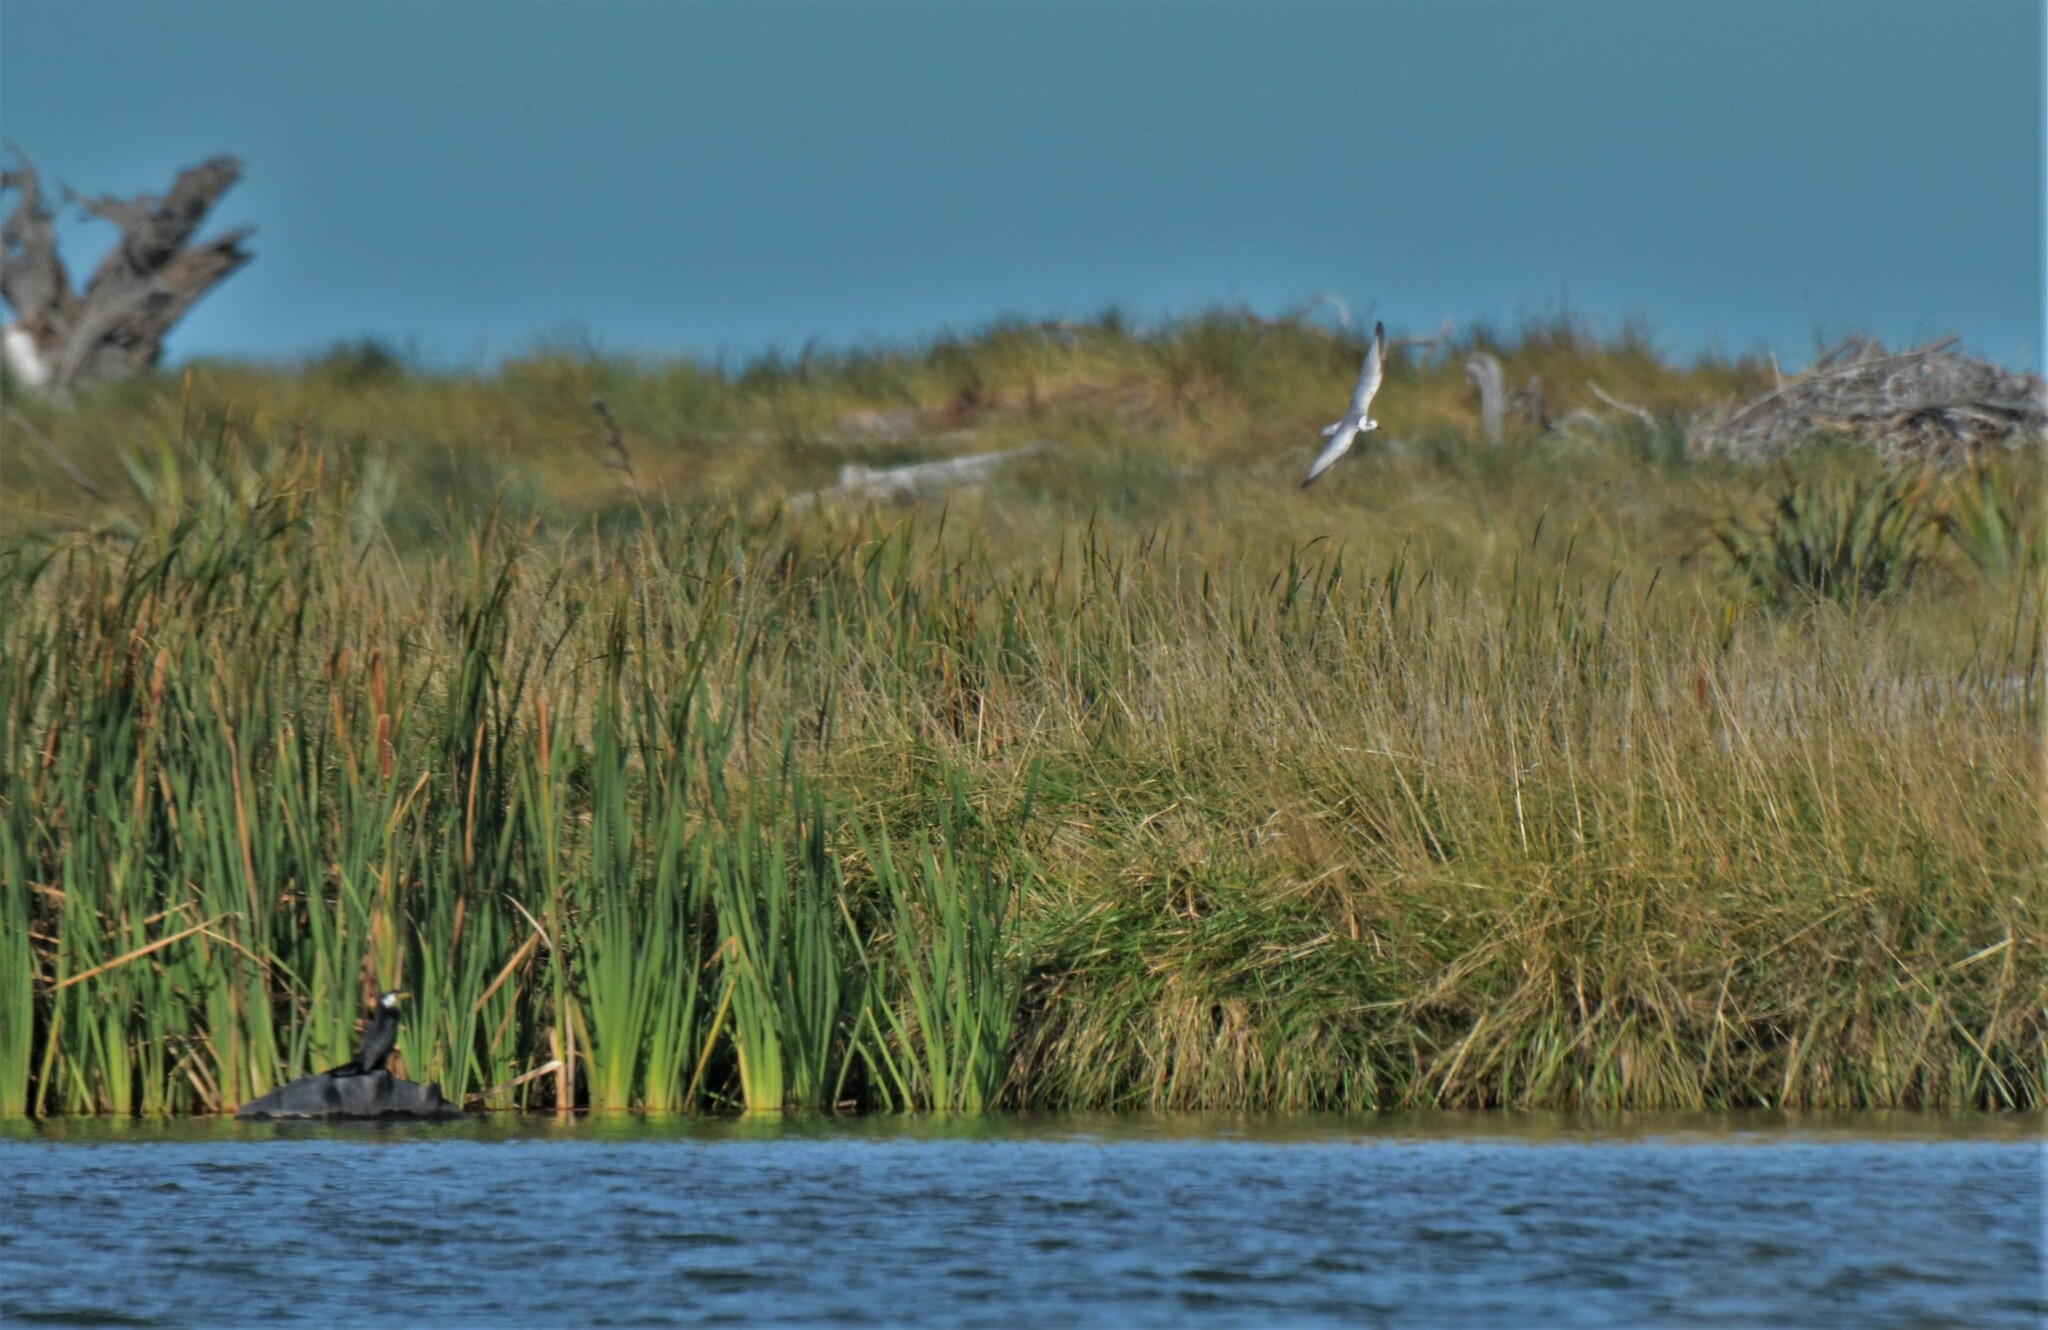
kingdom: Animalia
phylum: Chordata
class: Aves
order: Charadriiformes
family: Laridae
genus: Chlidonias
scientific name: Chlidonias leucopterus
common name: White-winged tern
